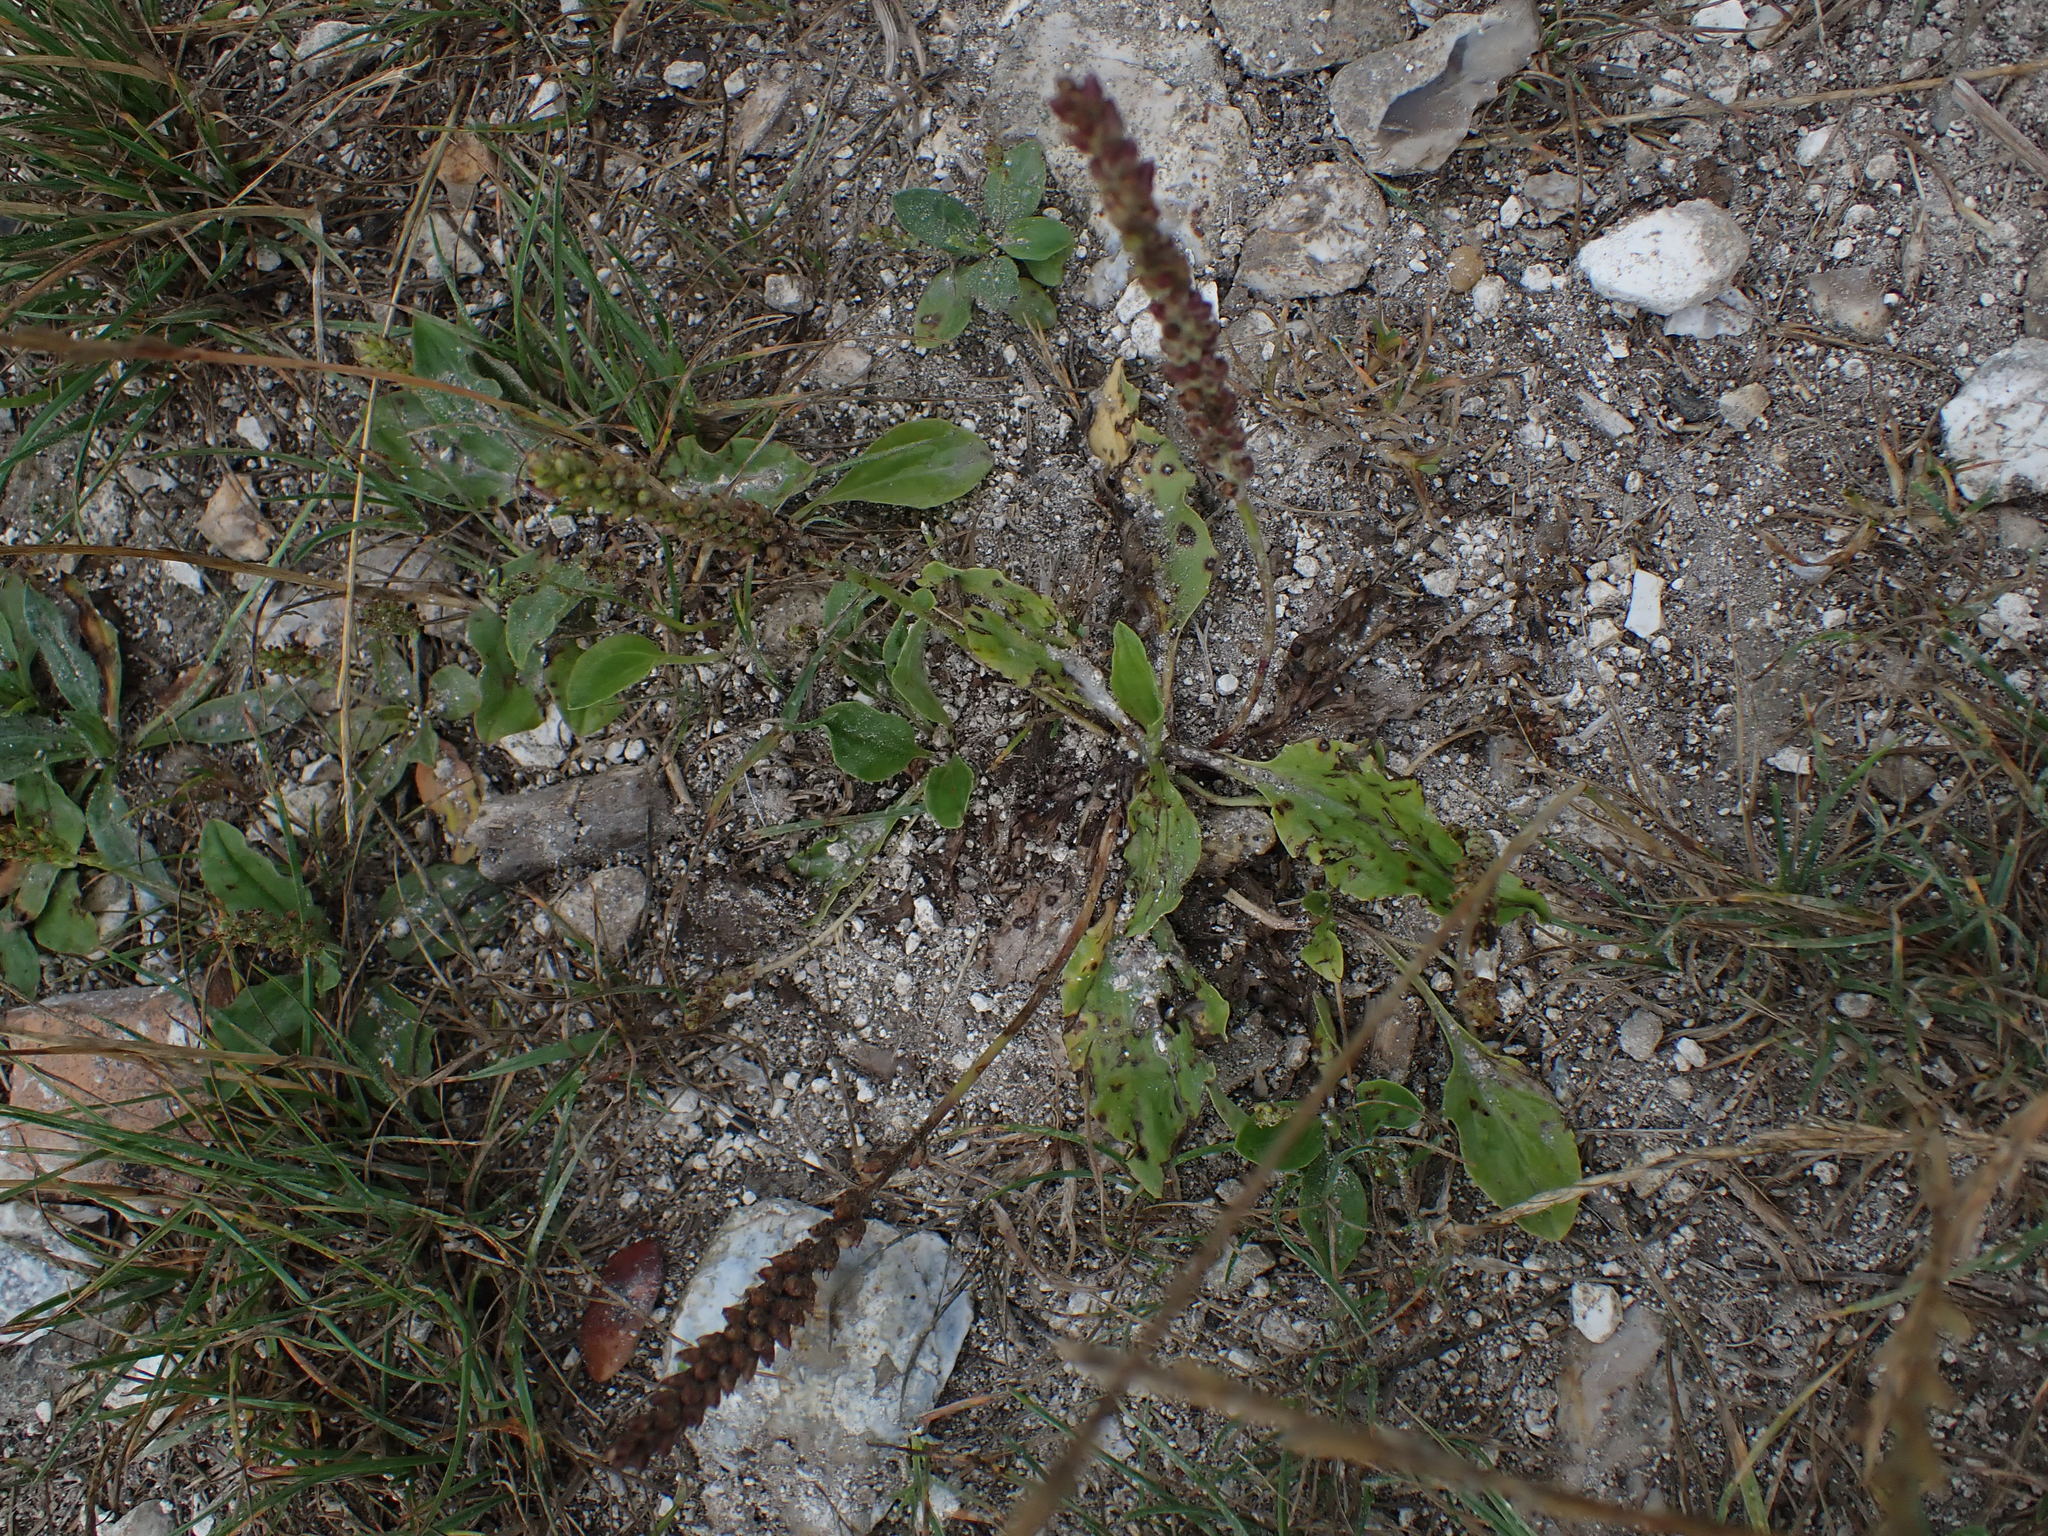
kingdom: Plantae
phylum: Tracheophyta
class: Magnoliopsida
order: Lamiales
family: Plantaginaceae
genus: Plantago
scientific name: Plantago major
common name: Common plantain
